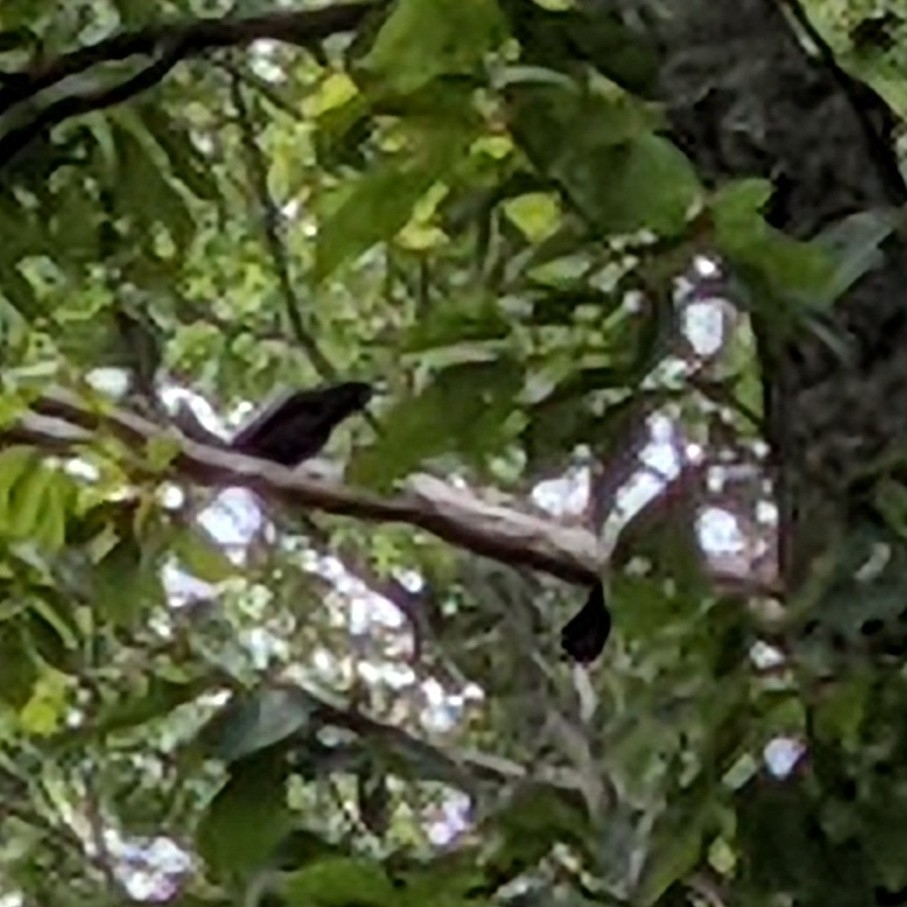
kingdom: Animalia
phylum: Chordata
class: Aves
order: Passeriformes
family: Corvidae
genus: Corvus
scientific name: Corvus brachyrhynchos
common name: American crow
